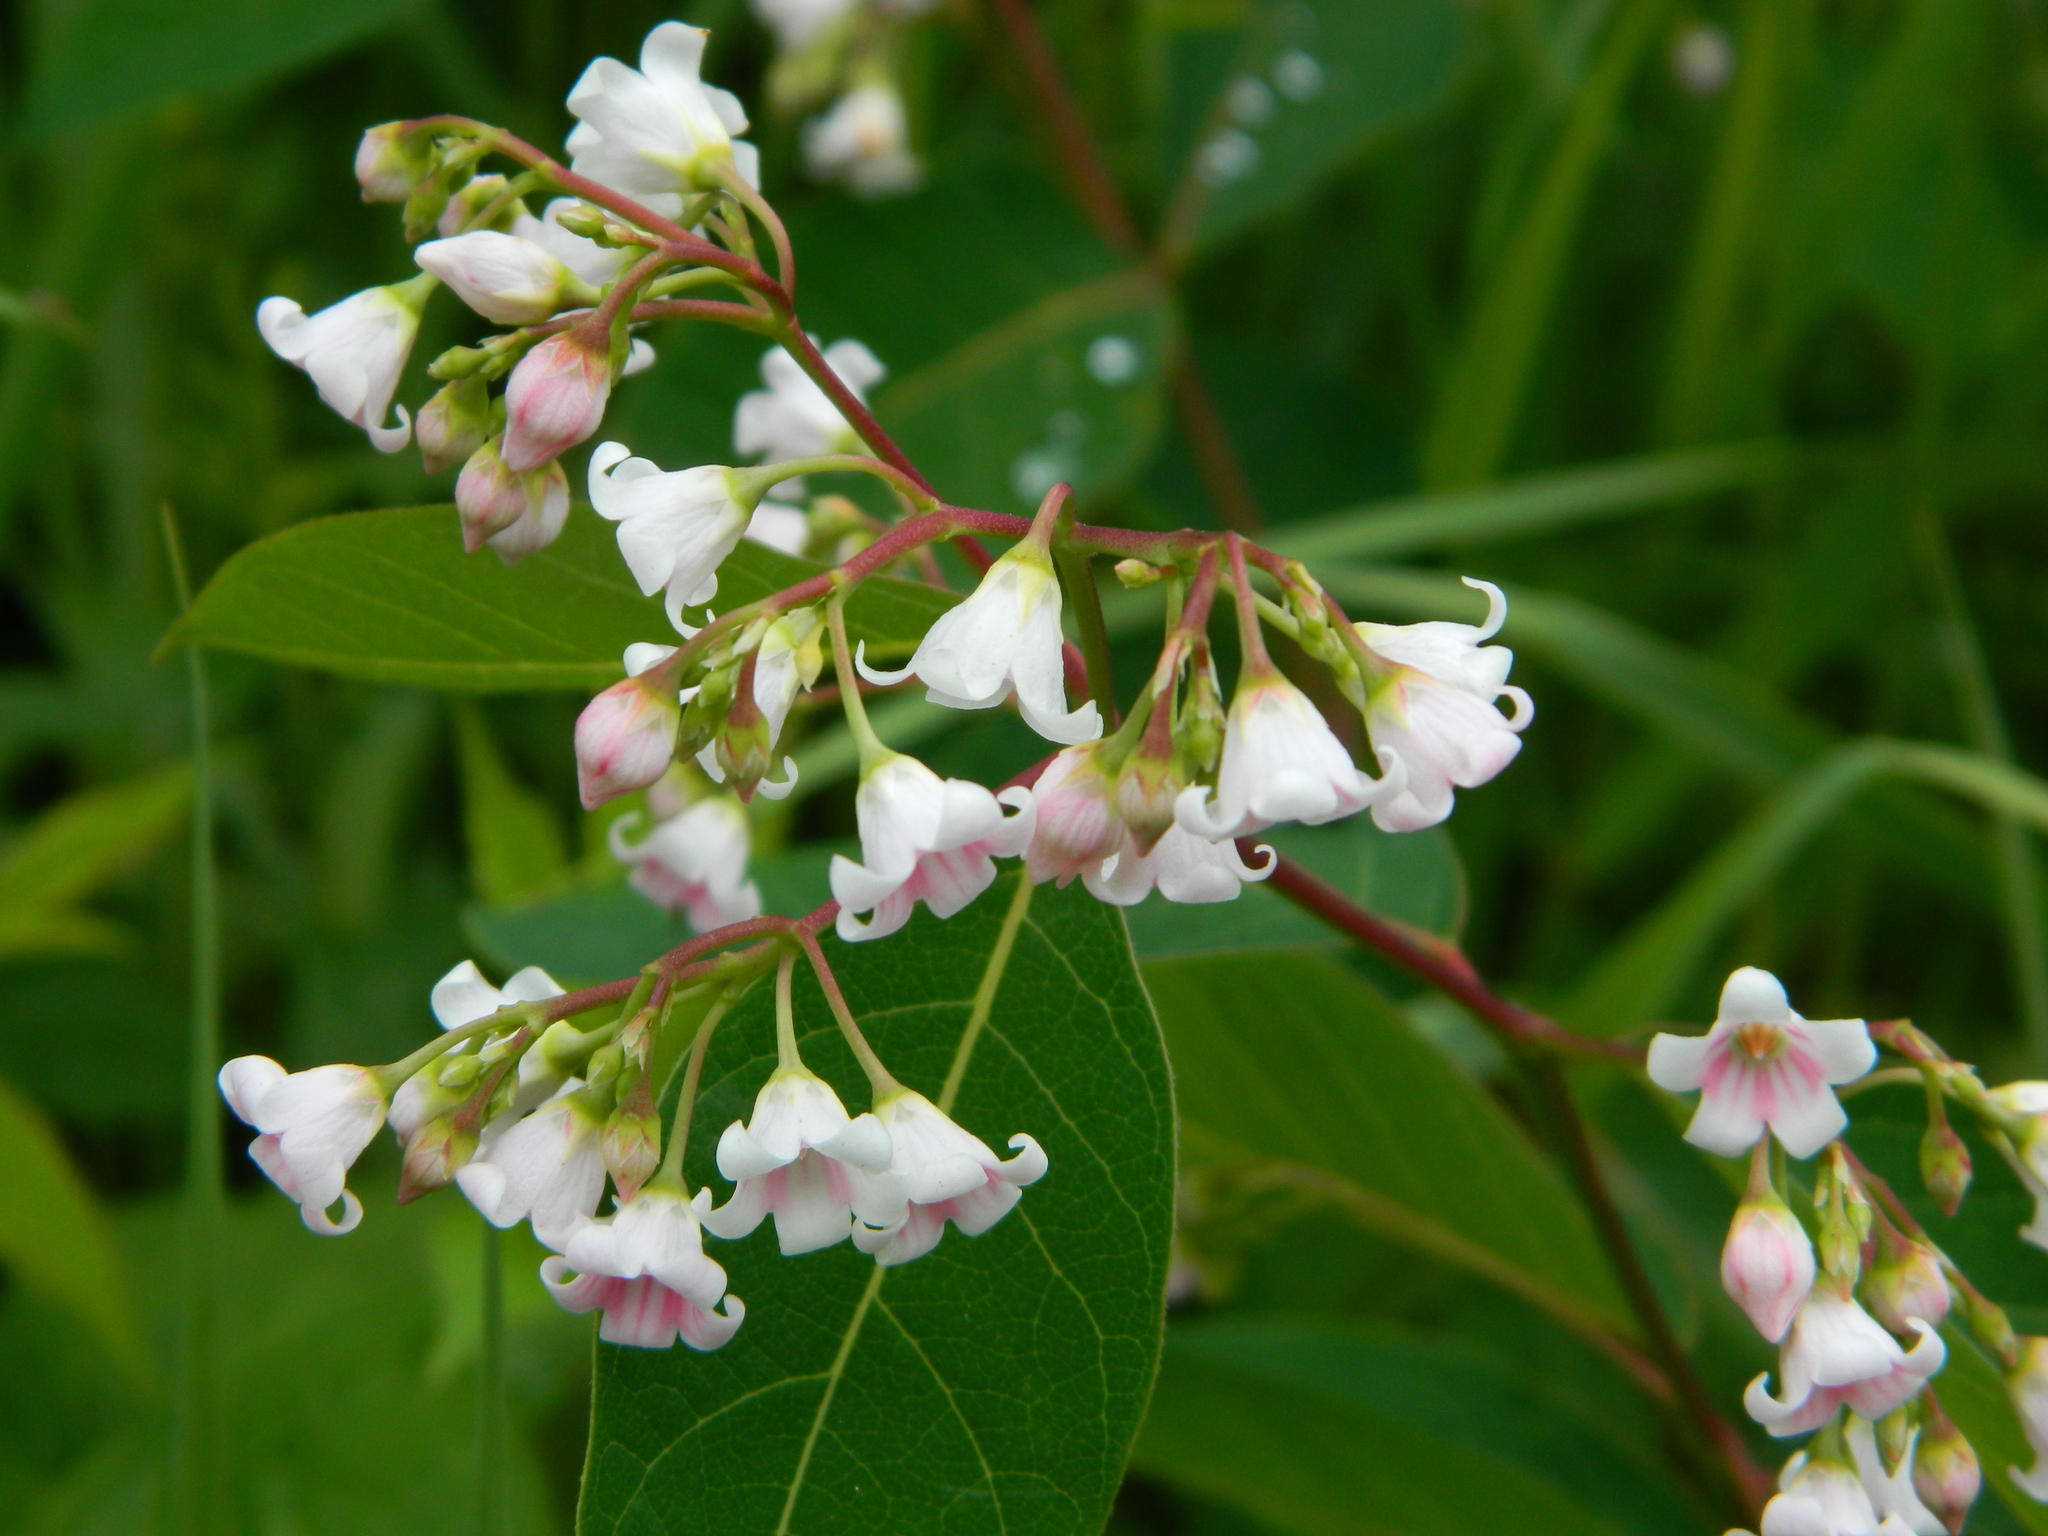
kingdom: Plantae
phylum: Tracheophyta
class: Magnoliopsida
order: Gentianales
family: Apocynaceae
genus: Apocynum
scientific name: Apocynum androsaemifolium
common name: Spreading dogbane
